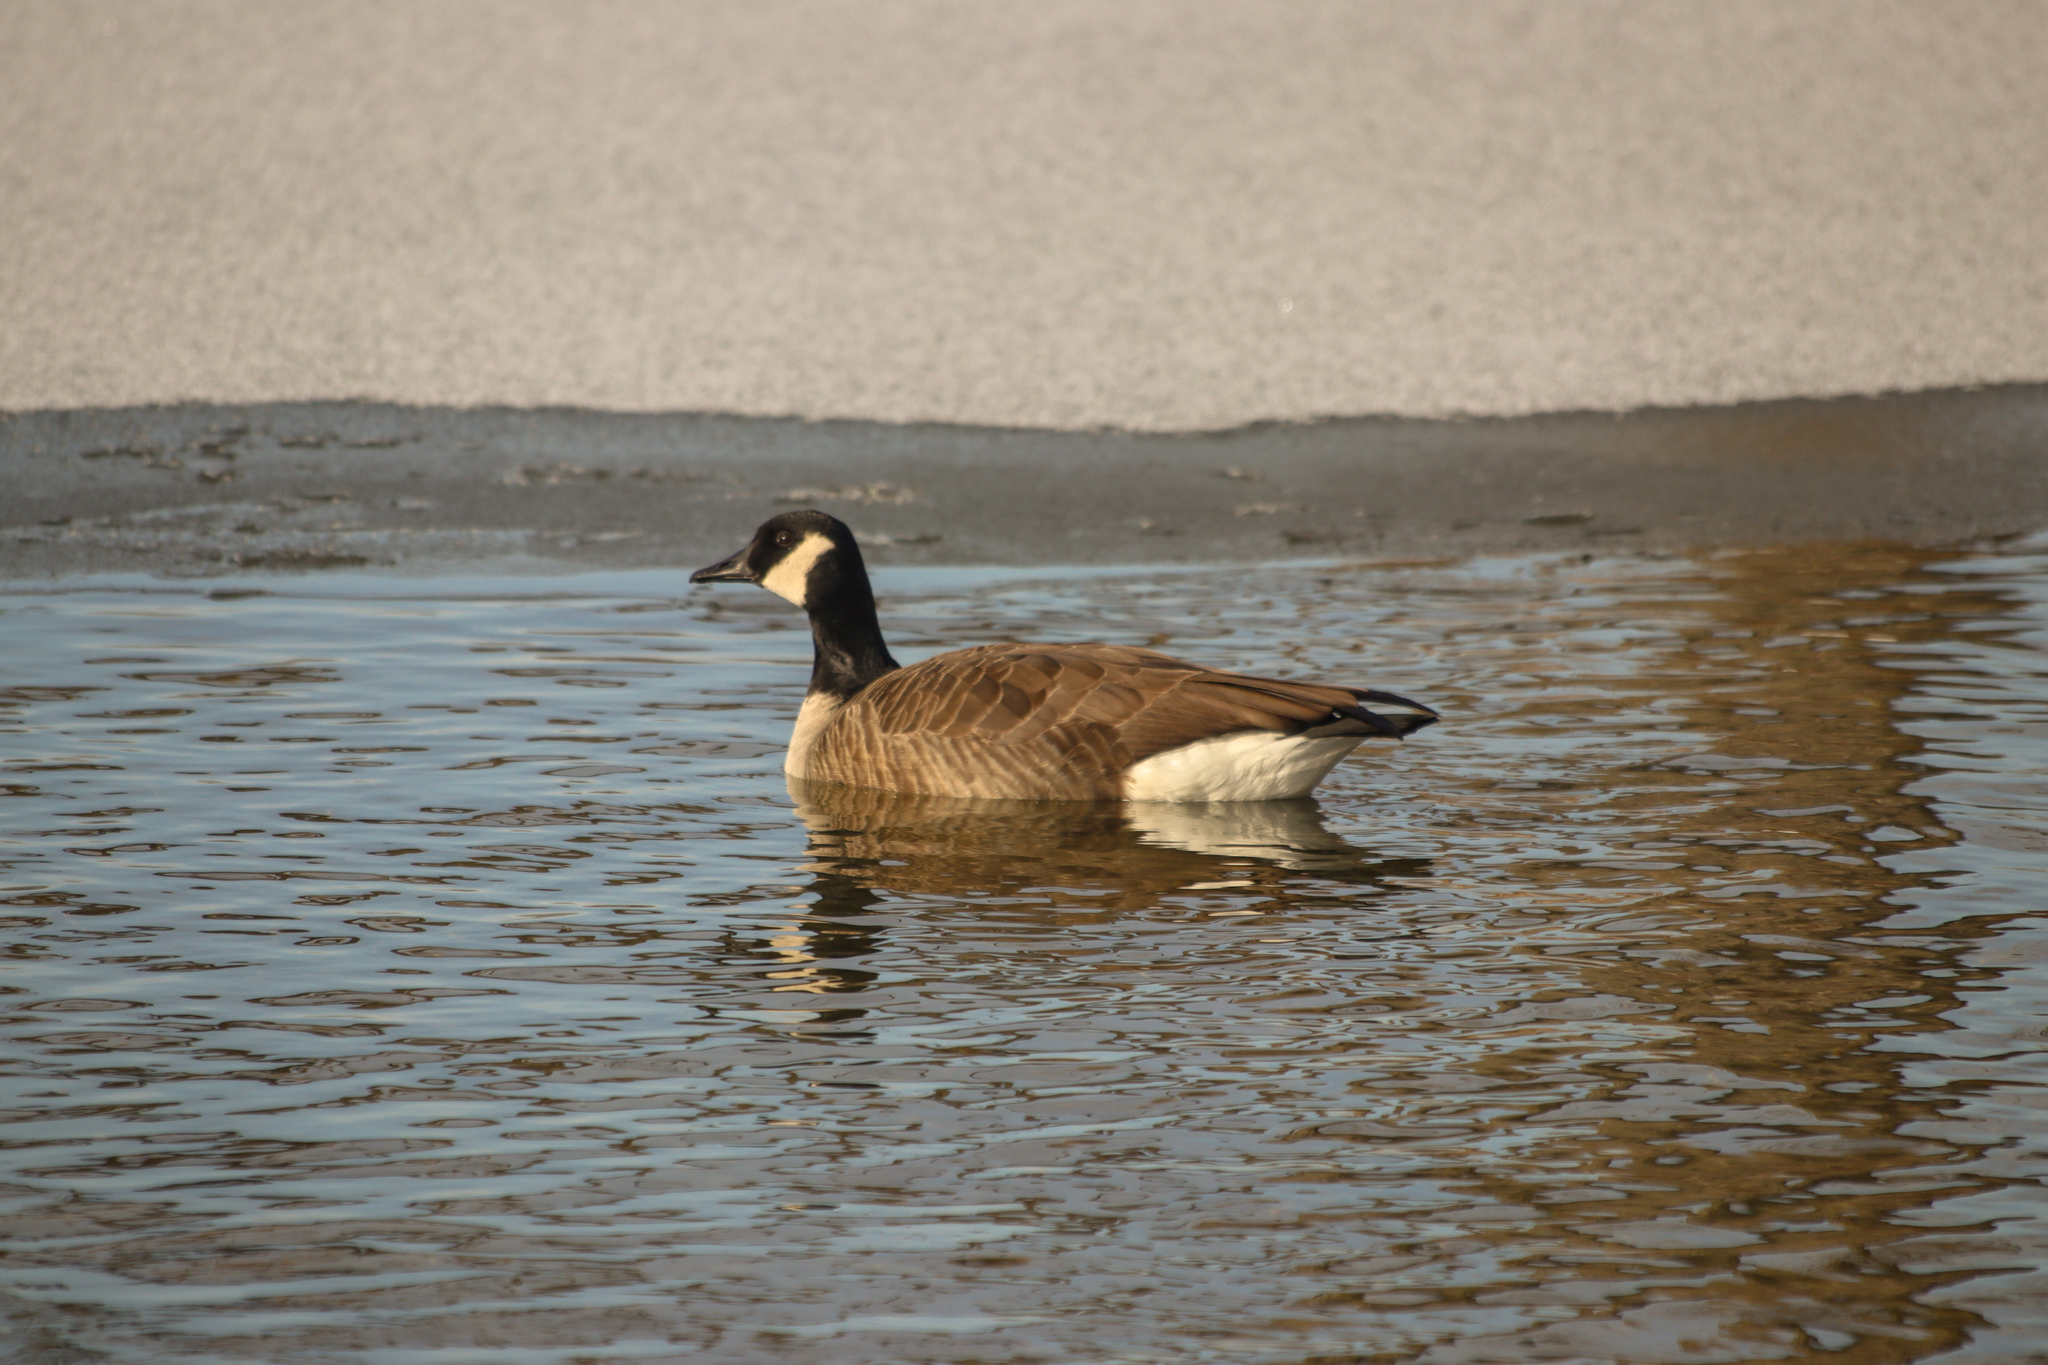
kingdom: Animalia
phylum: Chordata
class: Aves
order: Anseriformes
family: Anatidae
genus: Branta
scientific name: Branta canadensis
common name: Canada goose
